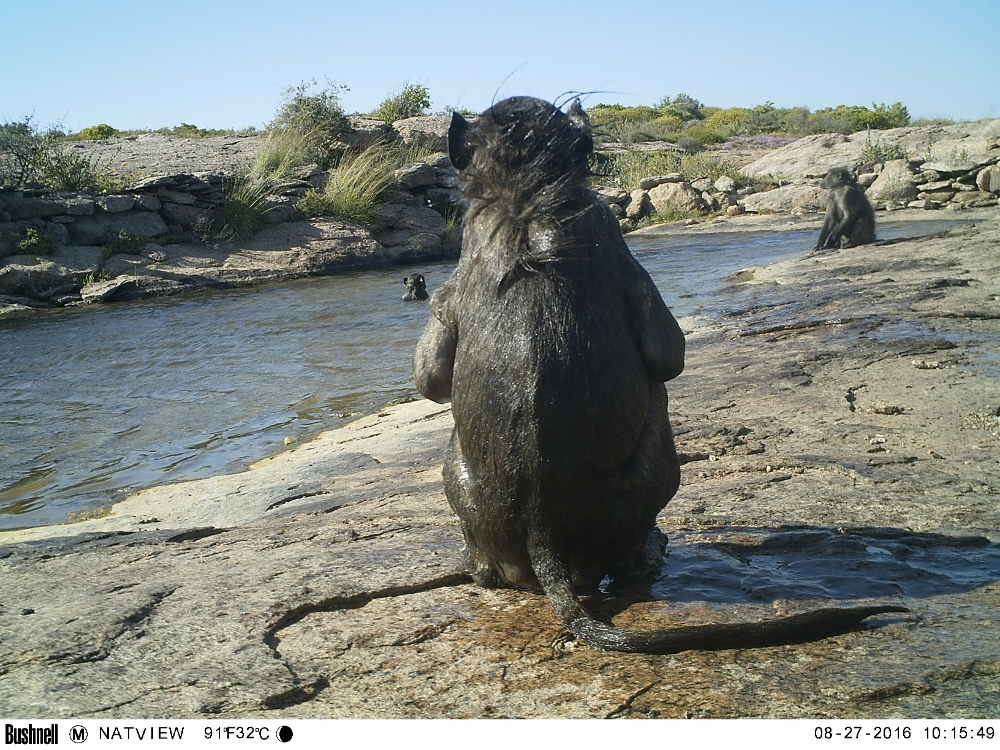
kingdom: Animalia
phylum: Chordata
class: Mammalia
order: Primates
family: Cercopithecidae
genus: Papio
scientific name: Papio ursinus
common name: Chacma baboon
